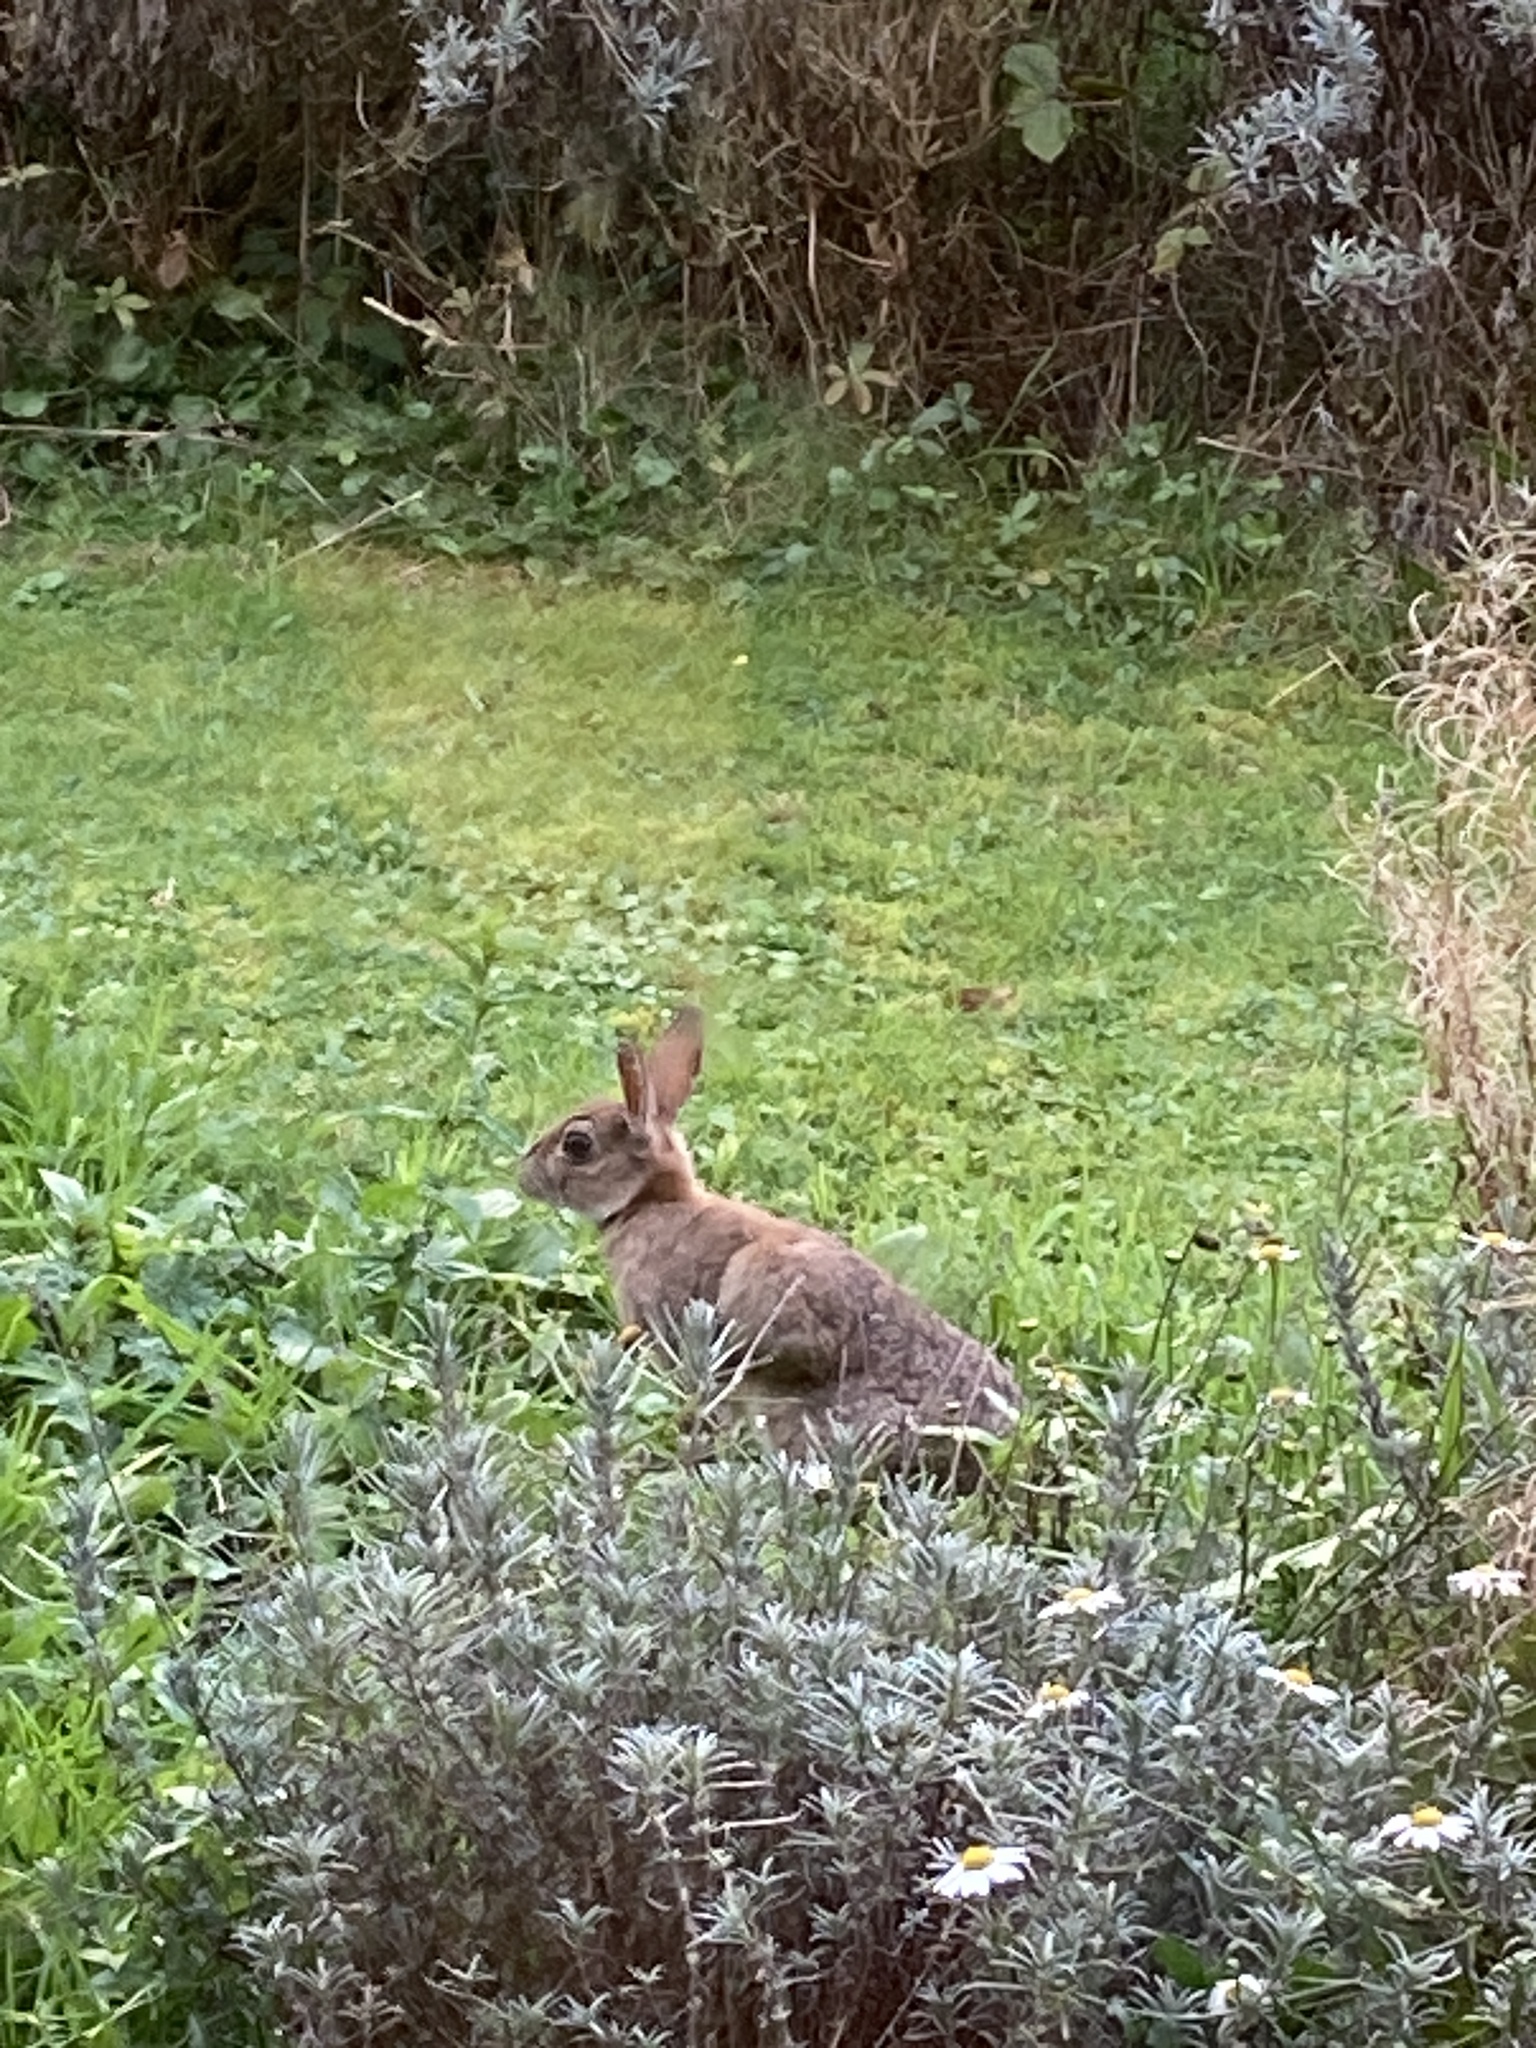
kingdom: Animalia
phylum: Chordata
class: Mammalia
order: Lagomorpha
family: Leporidae
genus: Oryctolagus
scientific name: Oryctolagus cuniculus
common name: European rabbit
